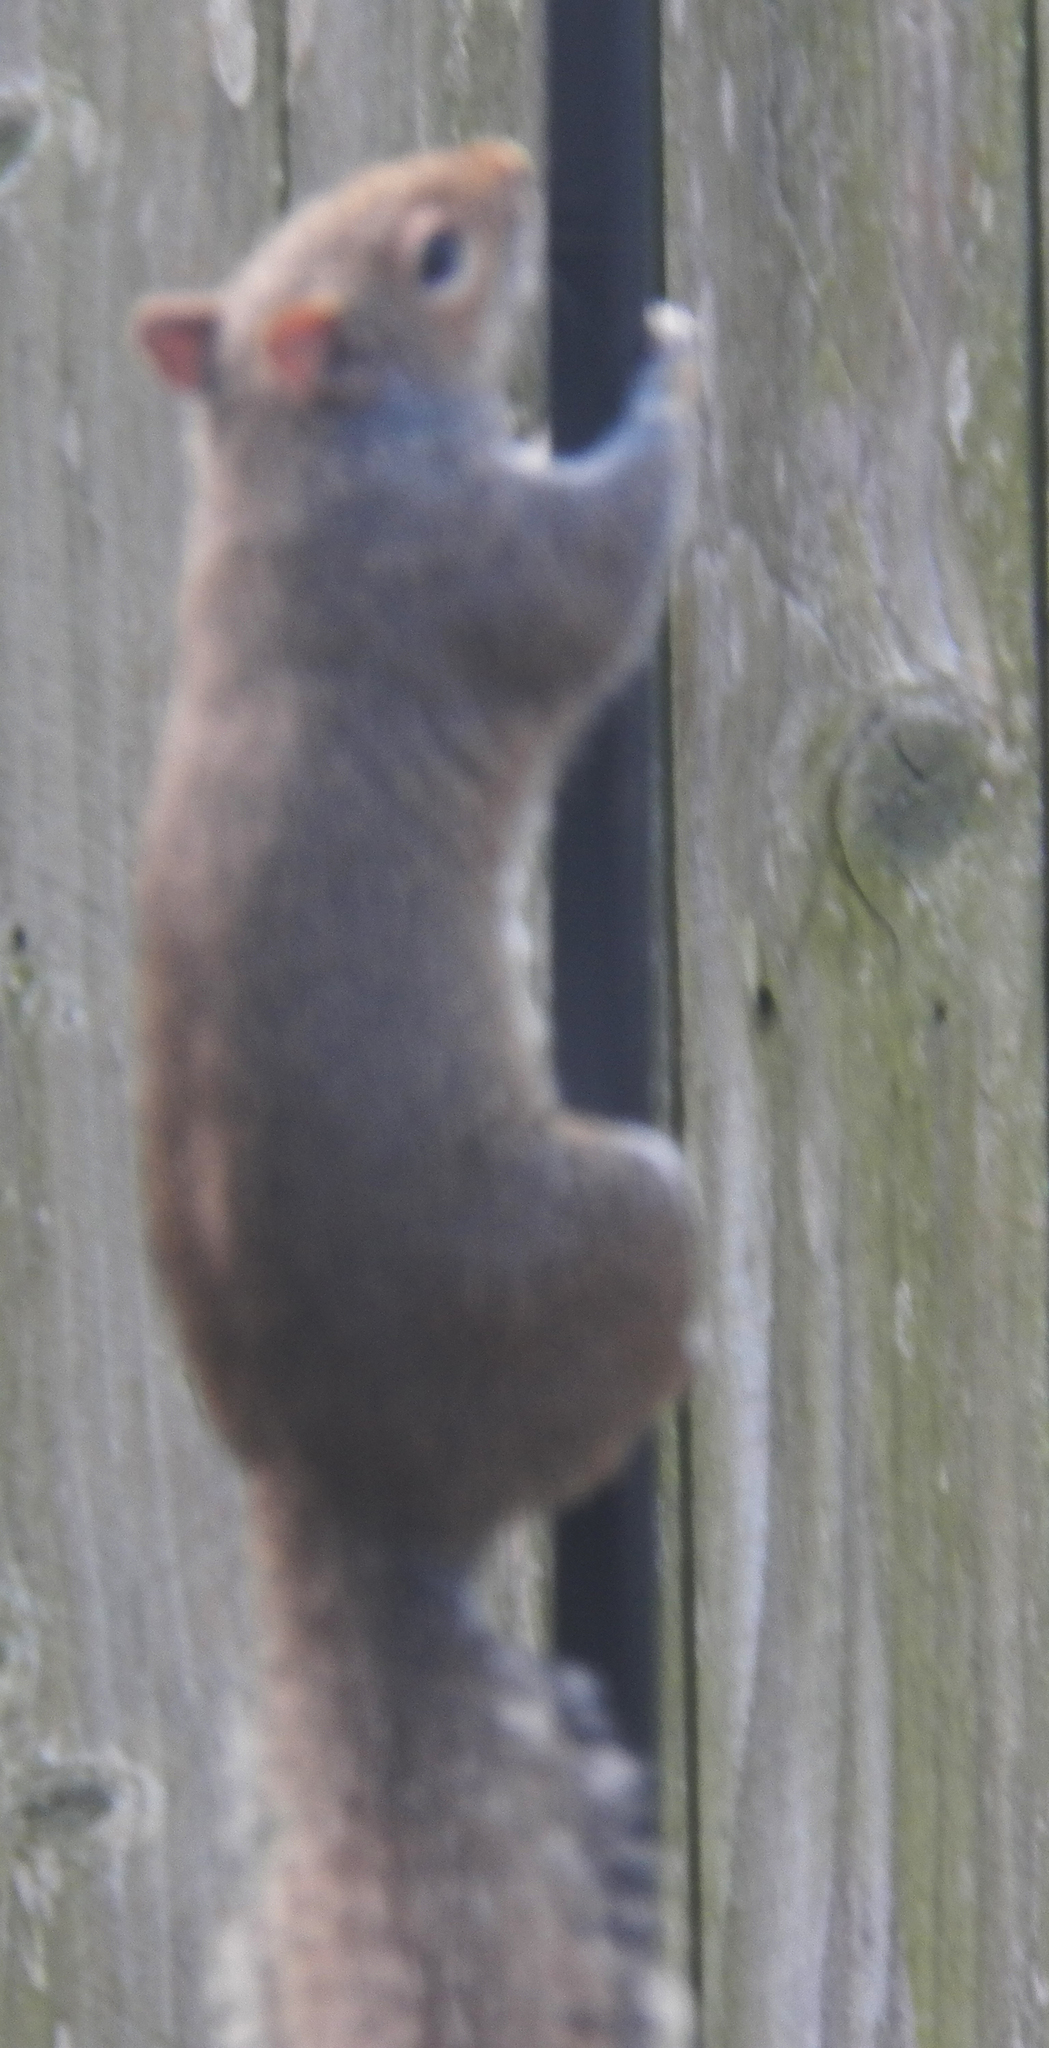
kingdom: Animalia
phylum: Chordata
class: Mammalia
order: Rodentia
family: Sciuridae
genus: Sciurus
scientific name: Sciurus carolinensis
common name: Eastern gray squirrel
